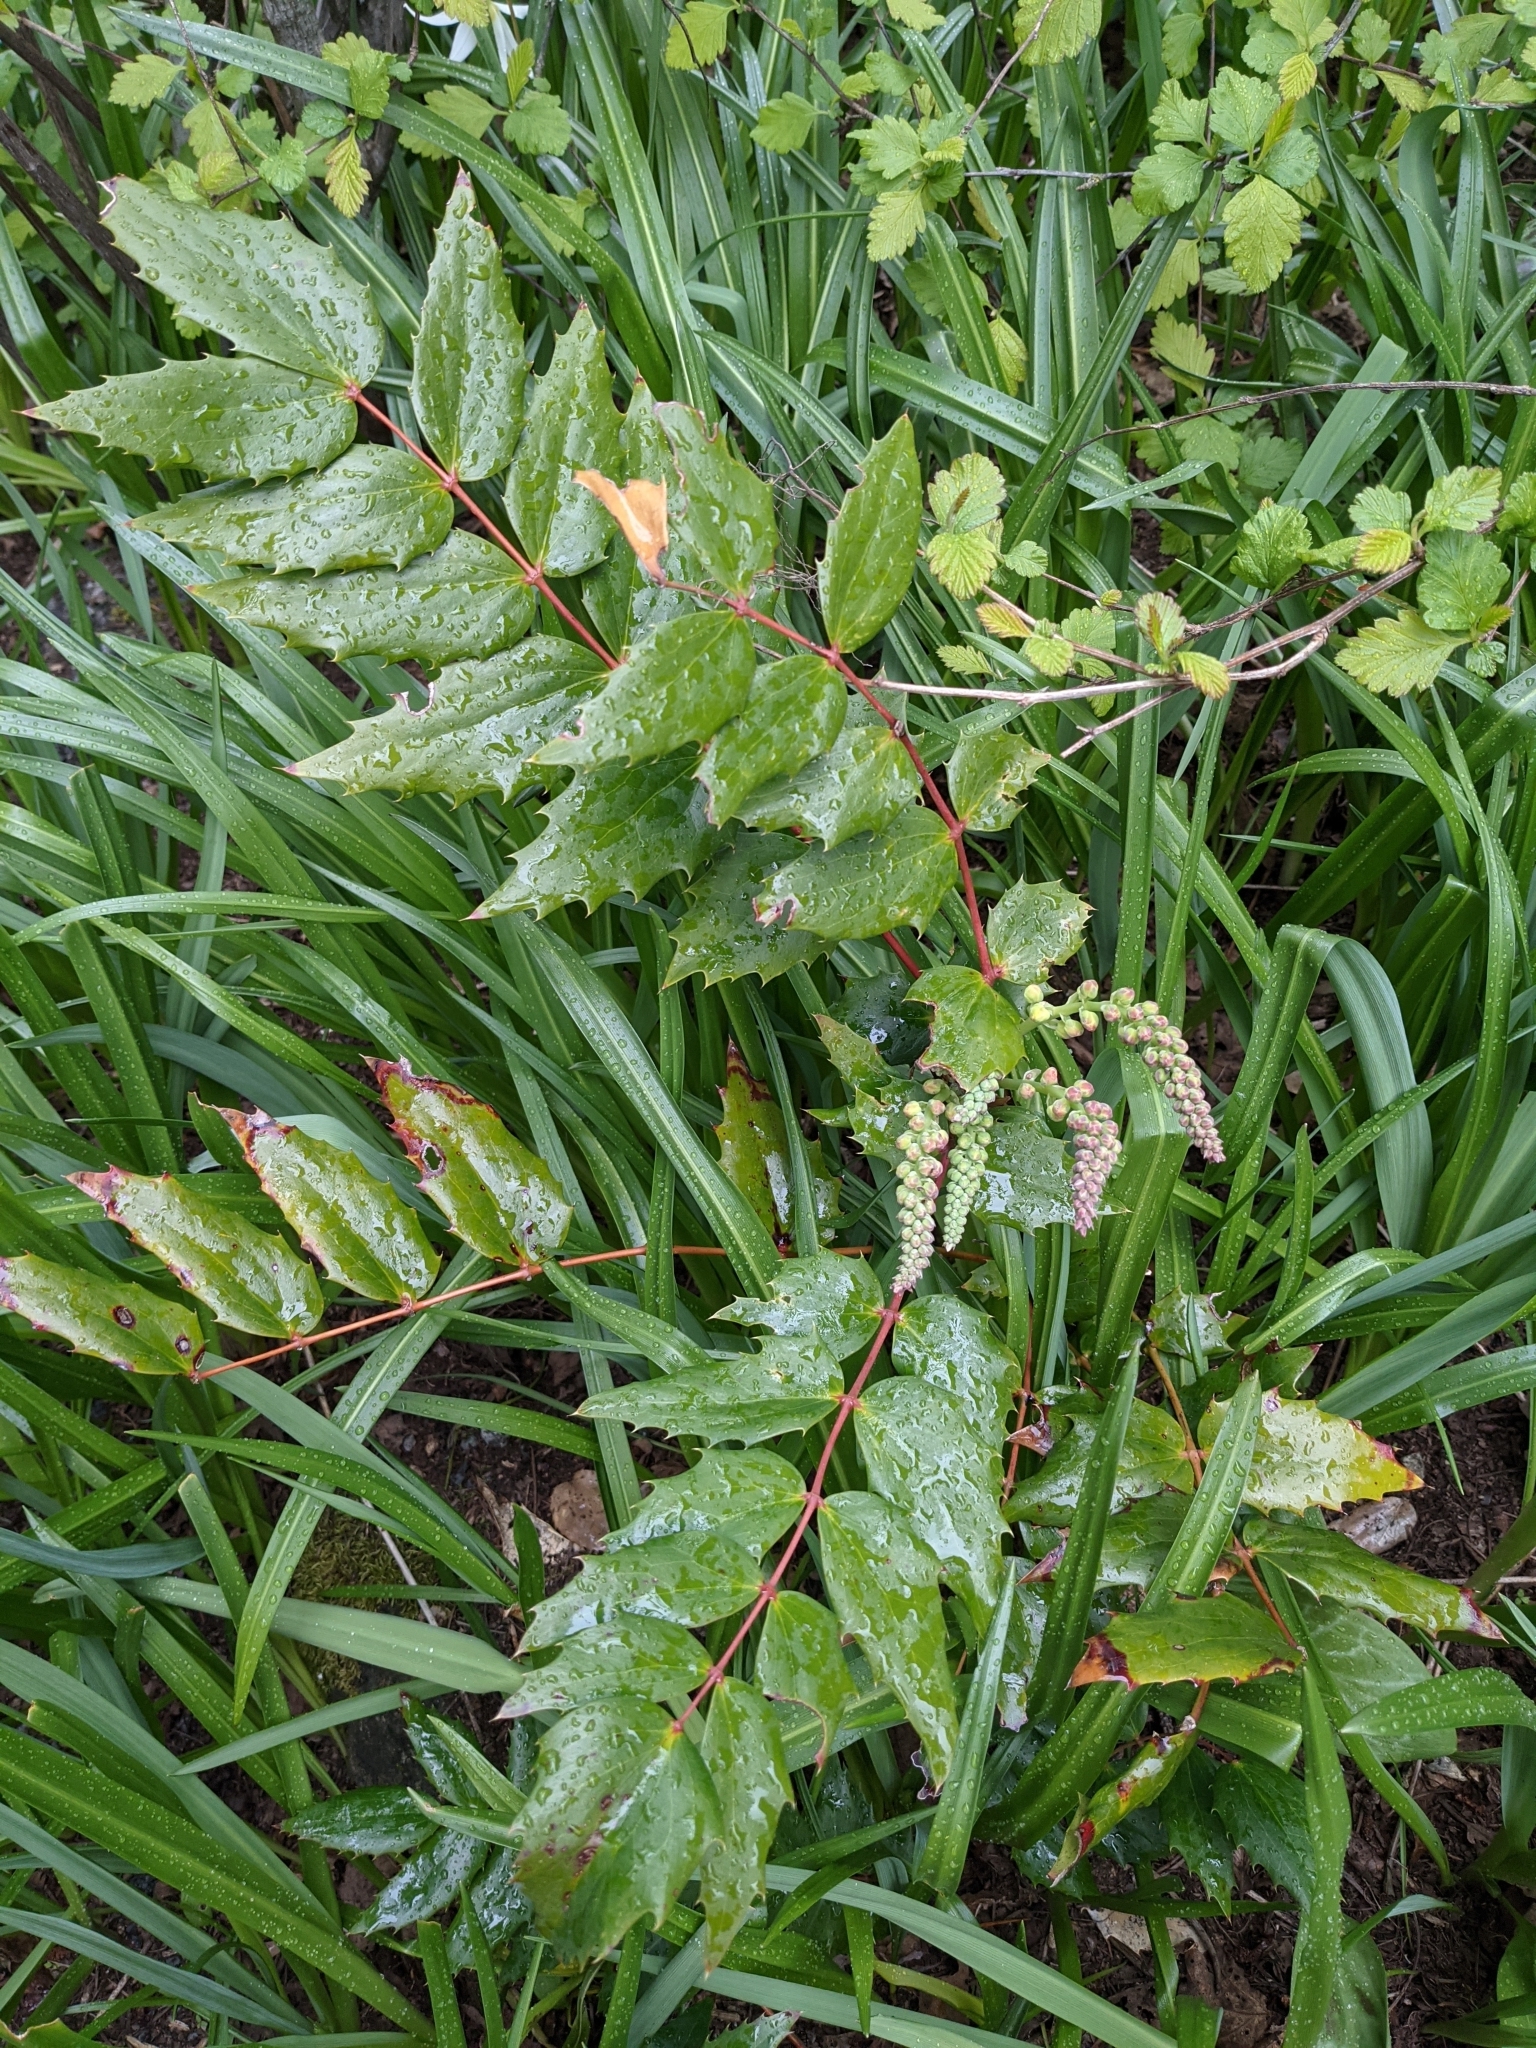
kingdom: Plantae
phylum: Tracheophyta
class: Magnoliopsida
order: Ranunculales
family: Berberidaceae
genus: Mahonia
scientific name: Mahonia nervosa
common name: Cascade oregon-grape
